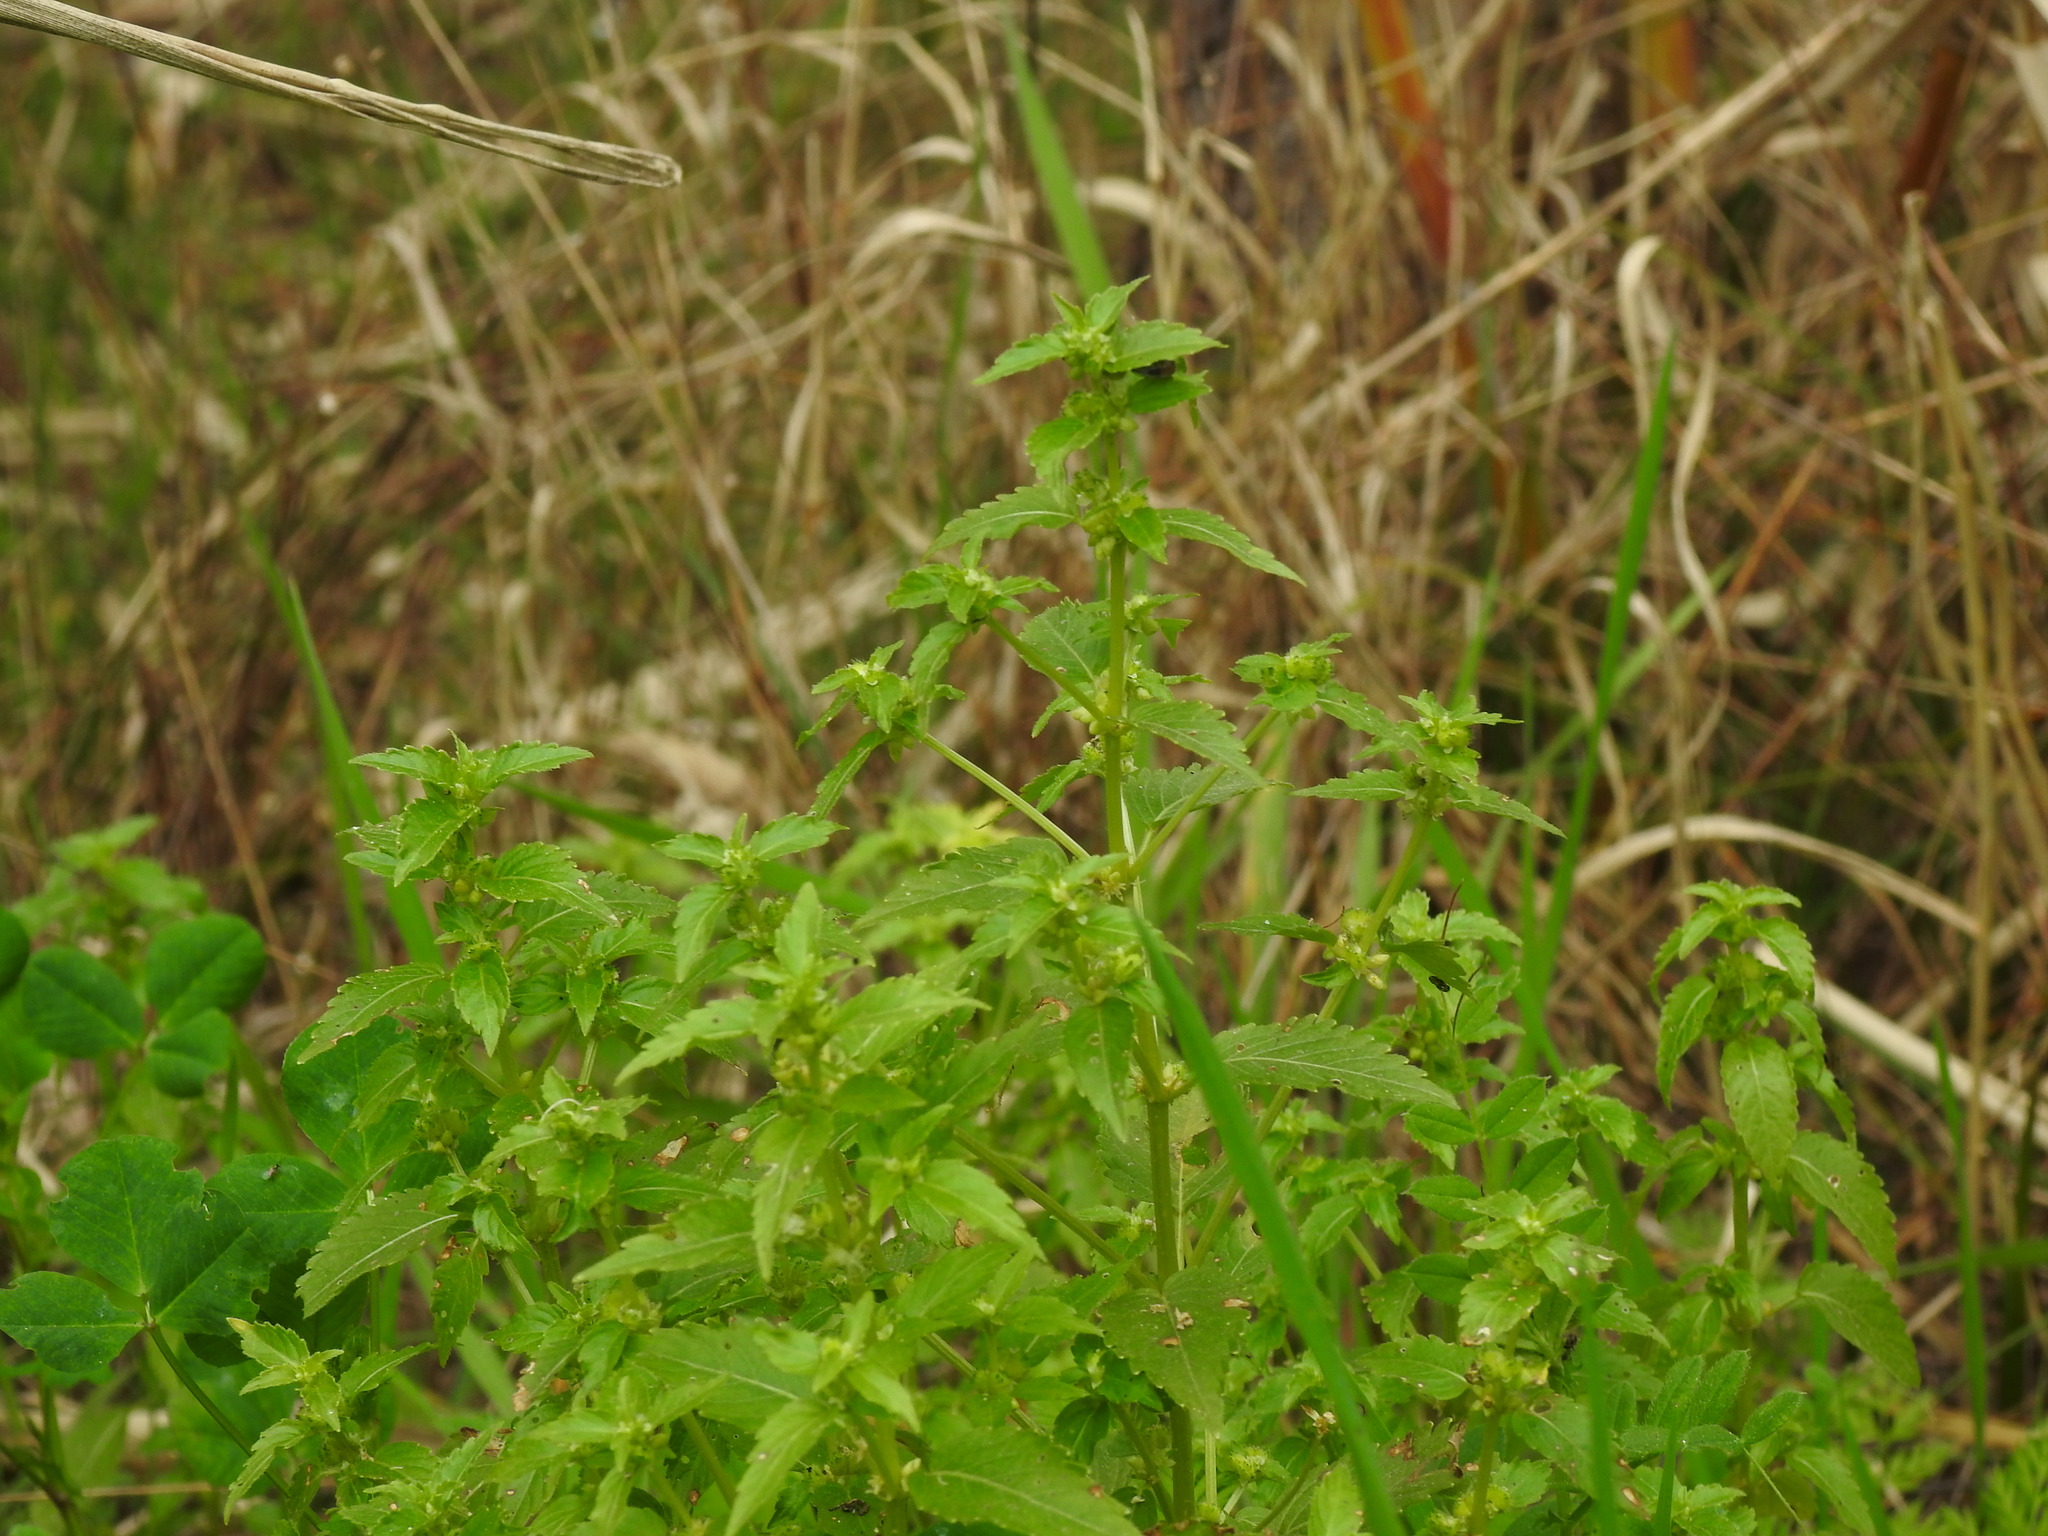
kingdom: Plantae
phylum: Tracheophyta
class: Magnoliopsida
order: Malpighiales
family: Euphorbiaceae
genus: Mercurialis
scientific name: Mercurialis annua
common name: Annual mercury
